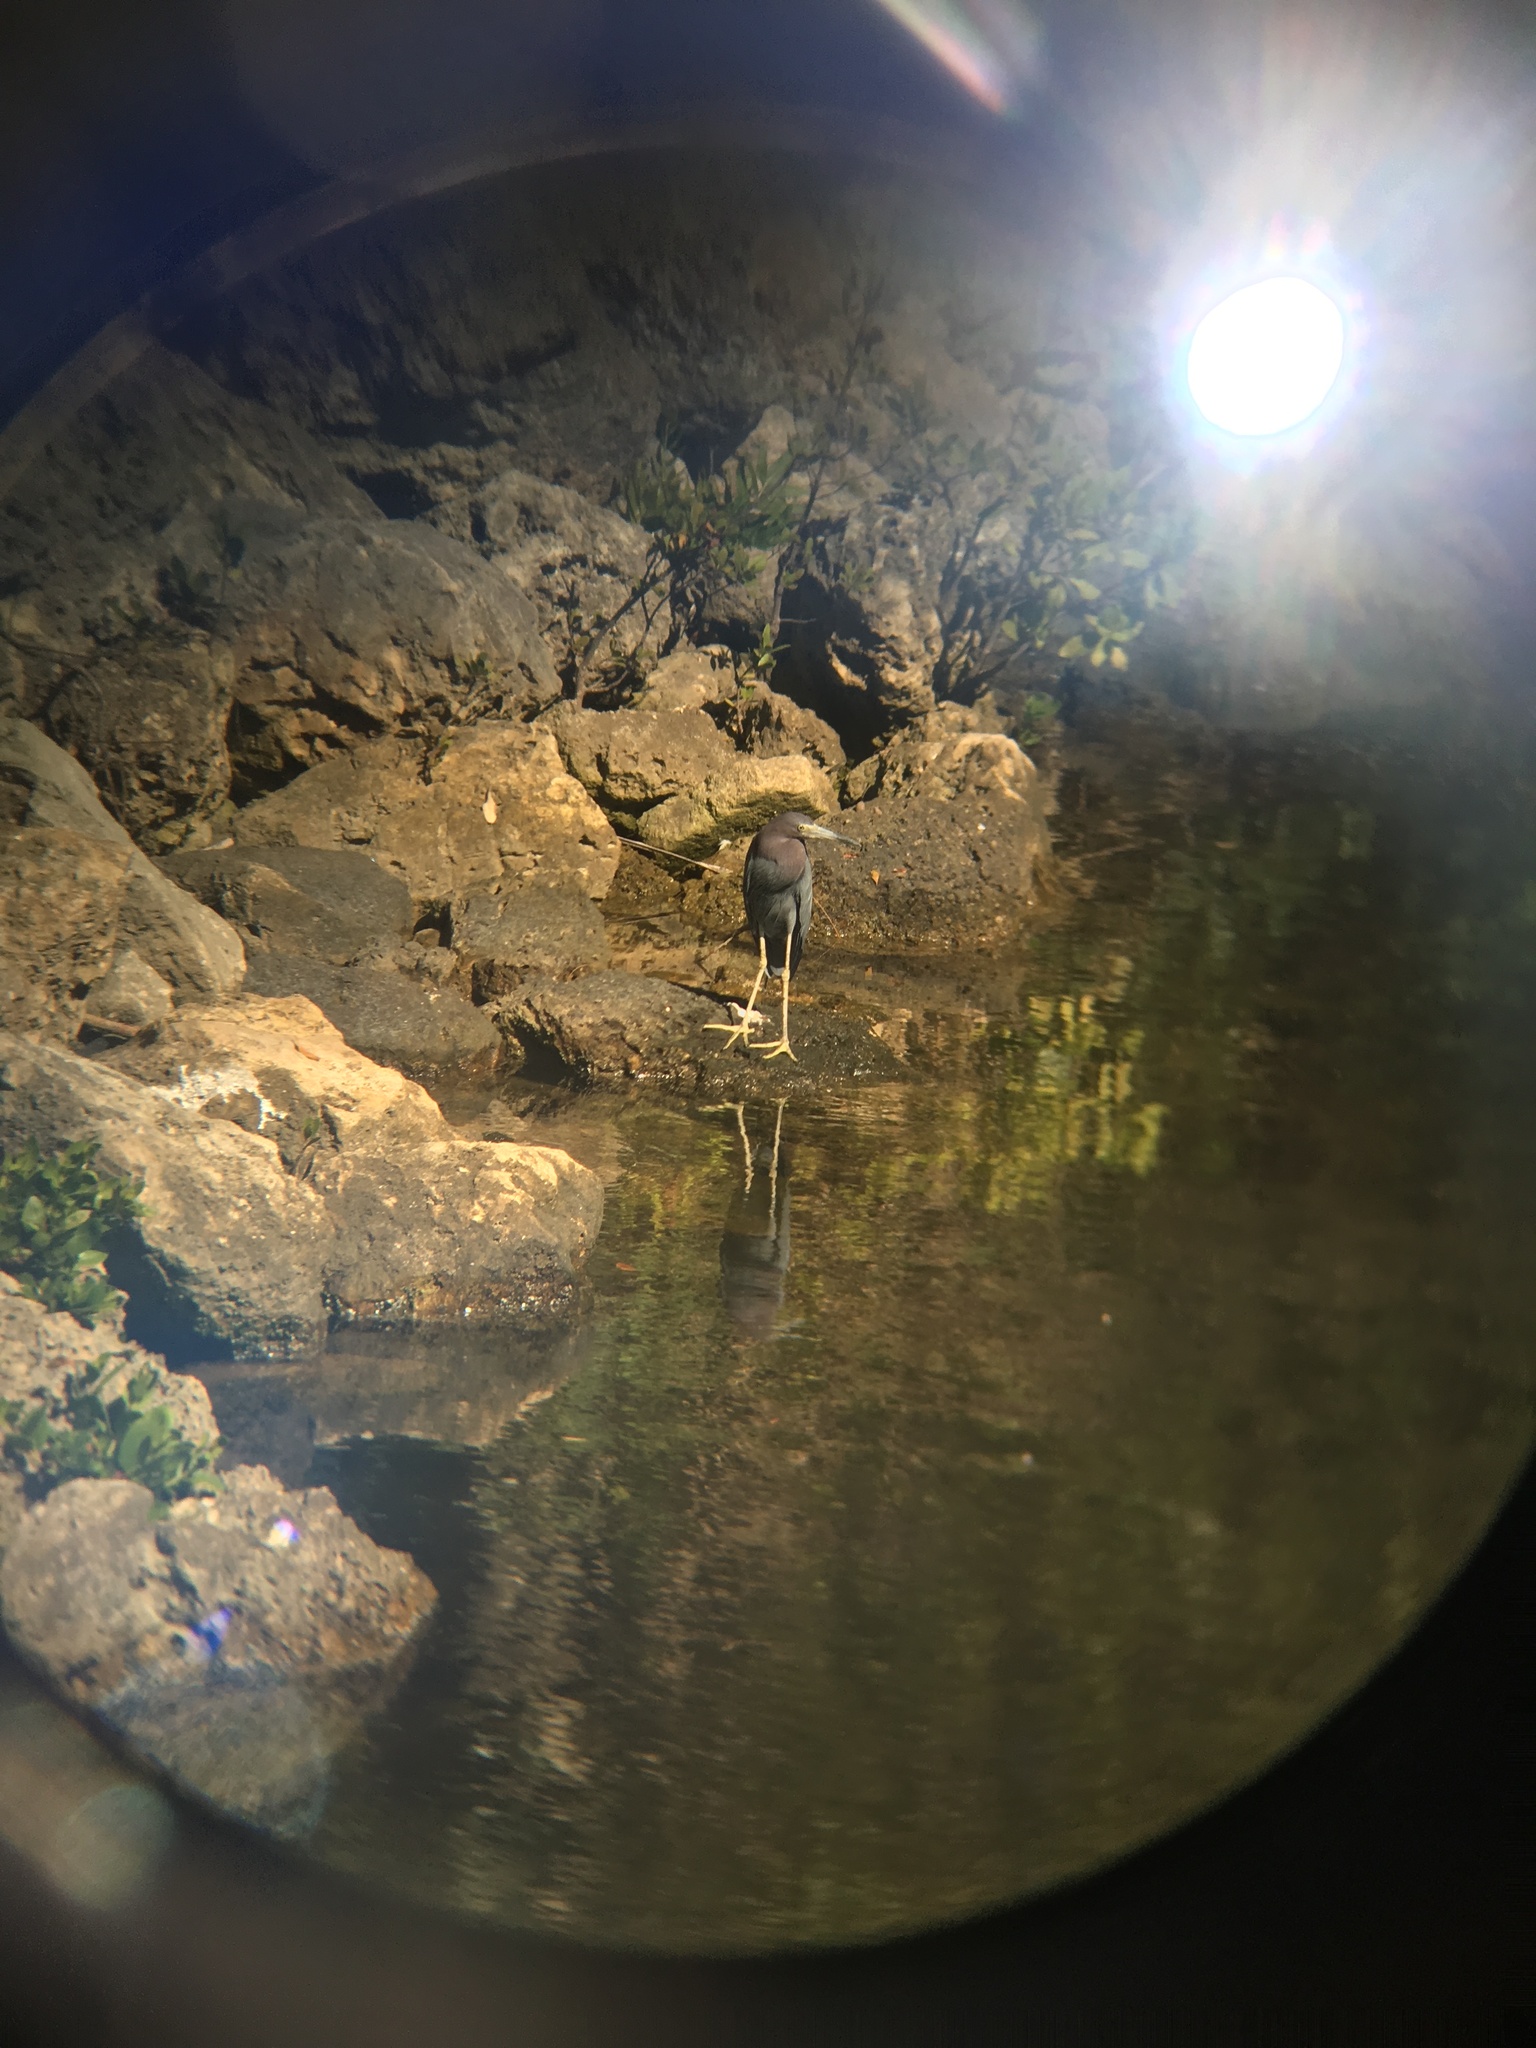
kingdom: Animalia
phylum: Chordata
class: Aves
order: Pelecaniformes
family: Ardeidae
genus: Egretta
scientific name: Egretta caerulea
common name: Little blue heron
